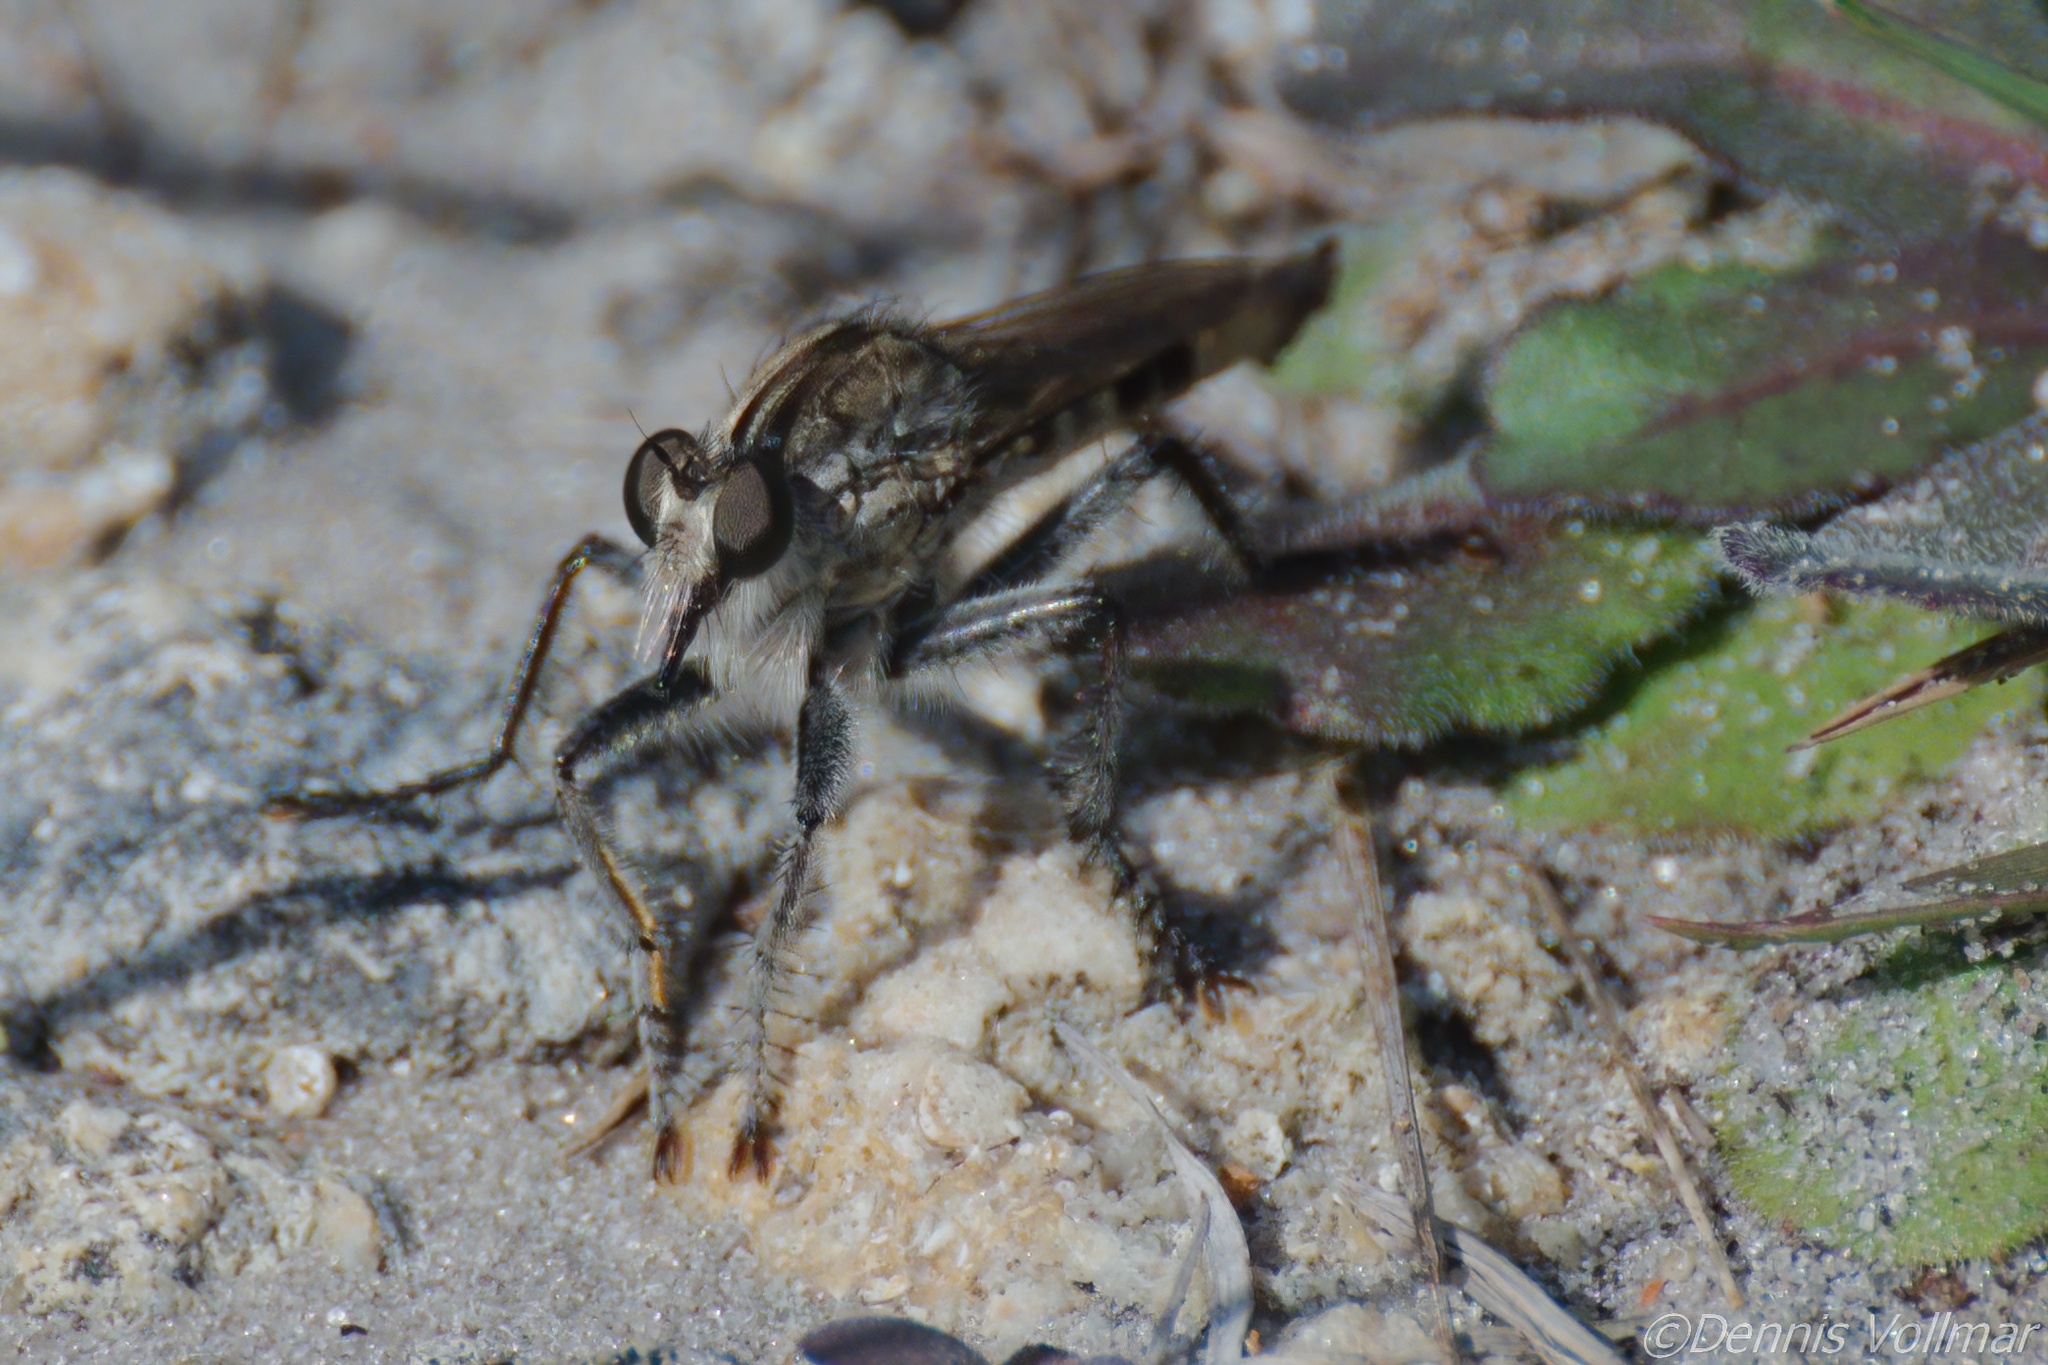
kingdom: Animalia
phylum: Arthropoda
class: Insecta
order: Diptera
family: Asilidae
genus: Triorla
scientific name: Triorla interrupta
